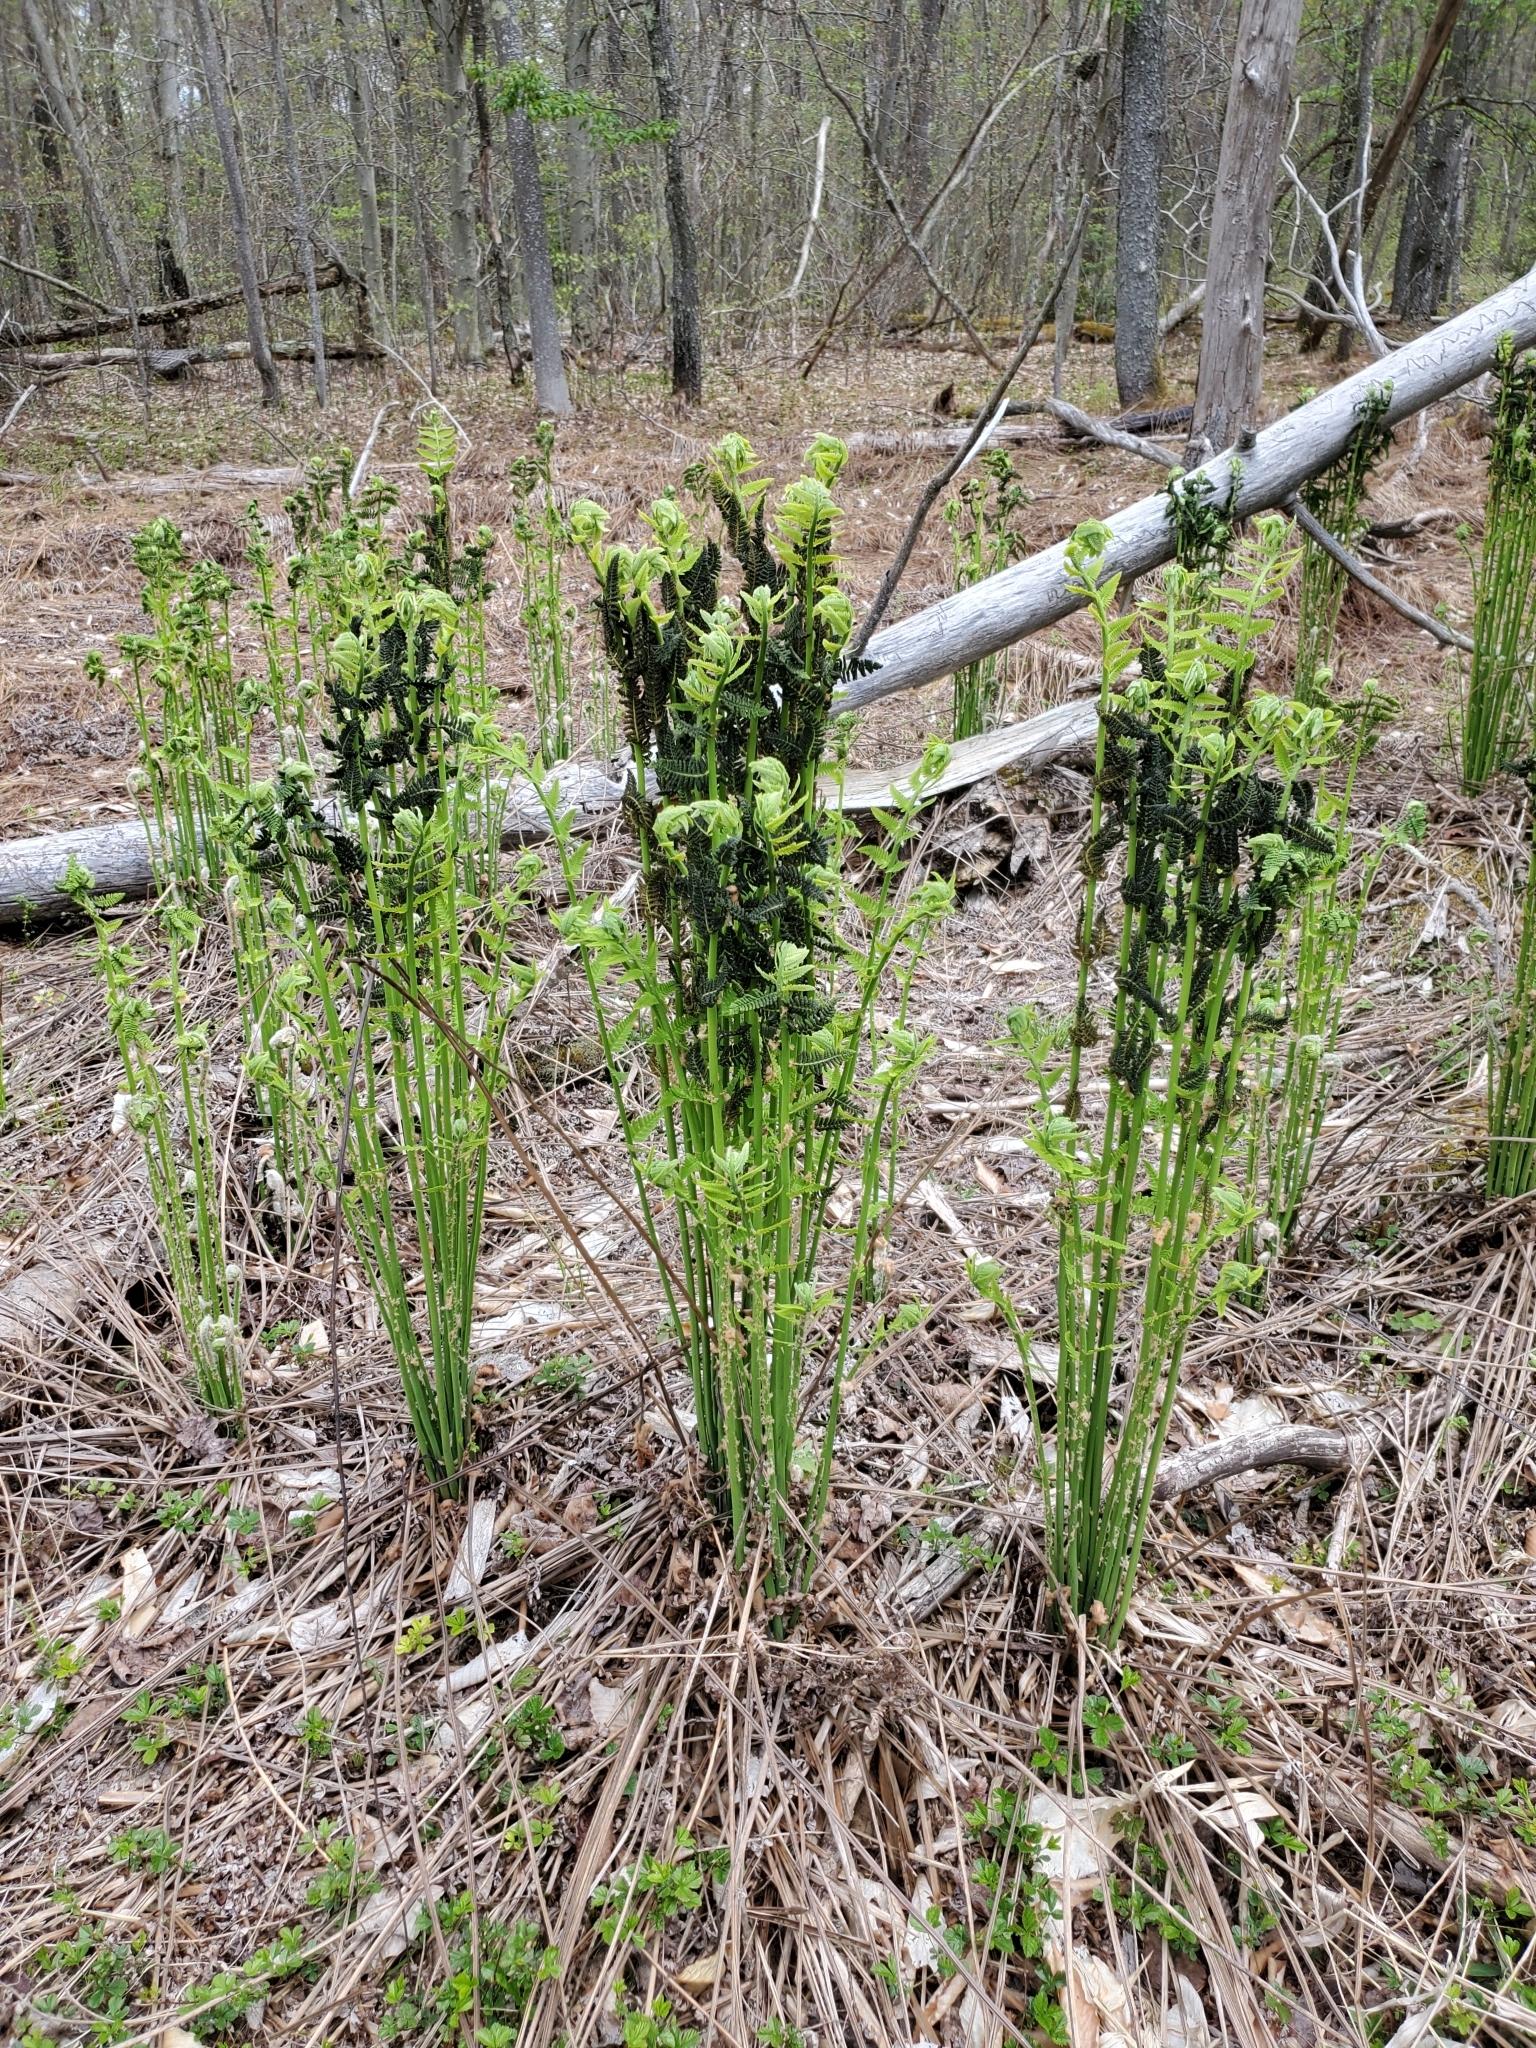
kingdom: Plantae
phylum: Tracheophyta
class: Polypodiopsida
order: Osmundales
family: Osmundaceae
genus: Claytosmunda
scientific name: Claytosmunda claytoniana
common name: Clayton's fern
